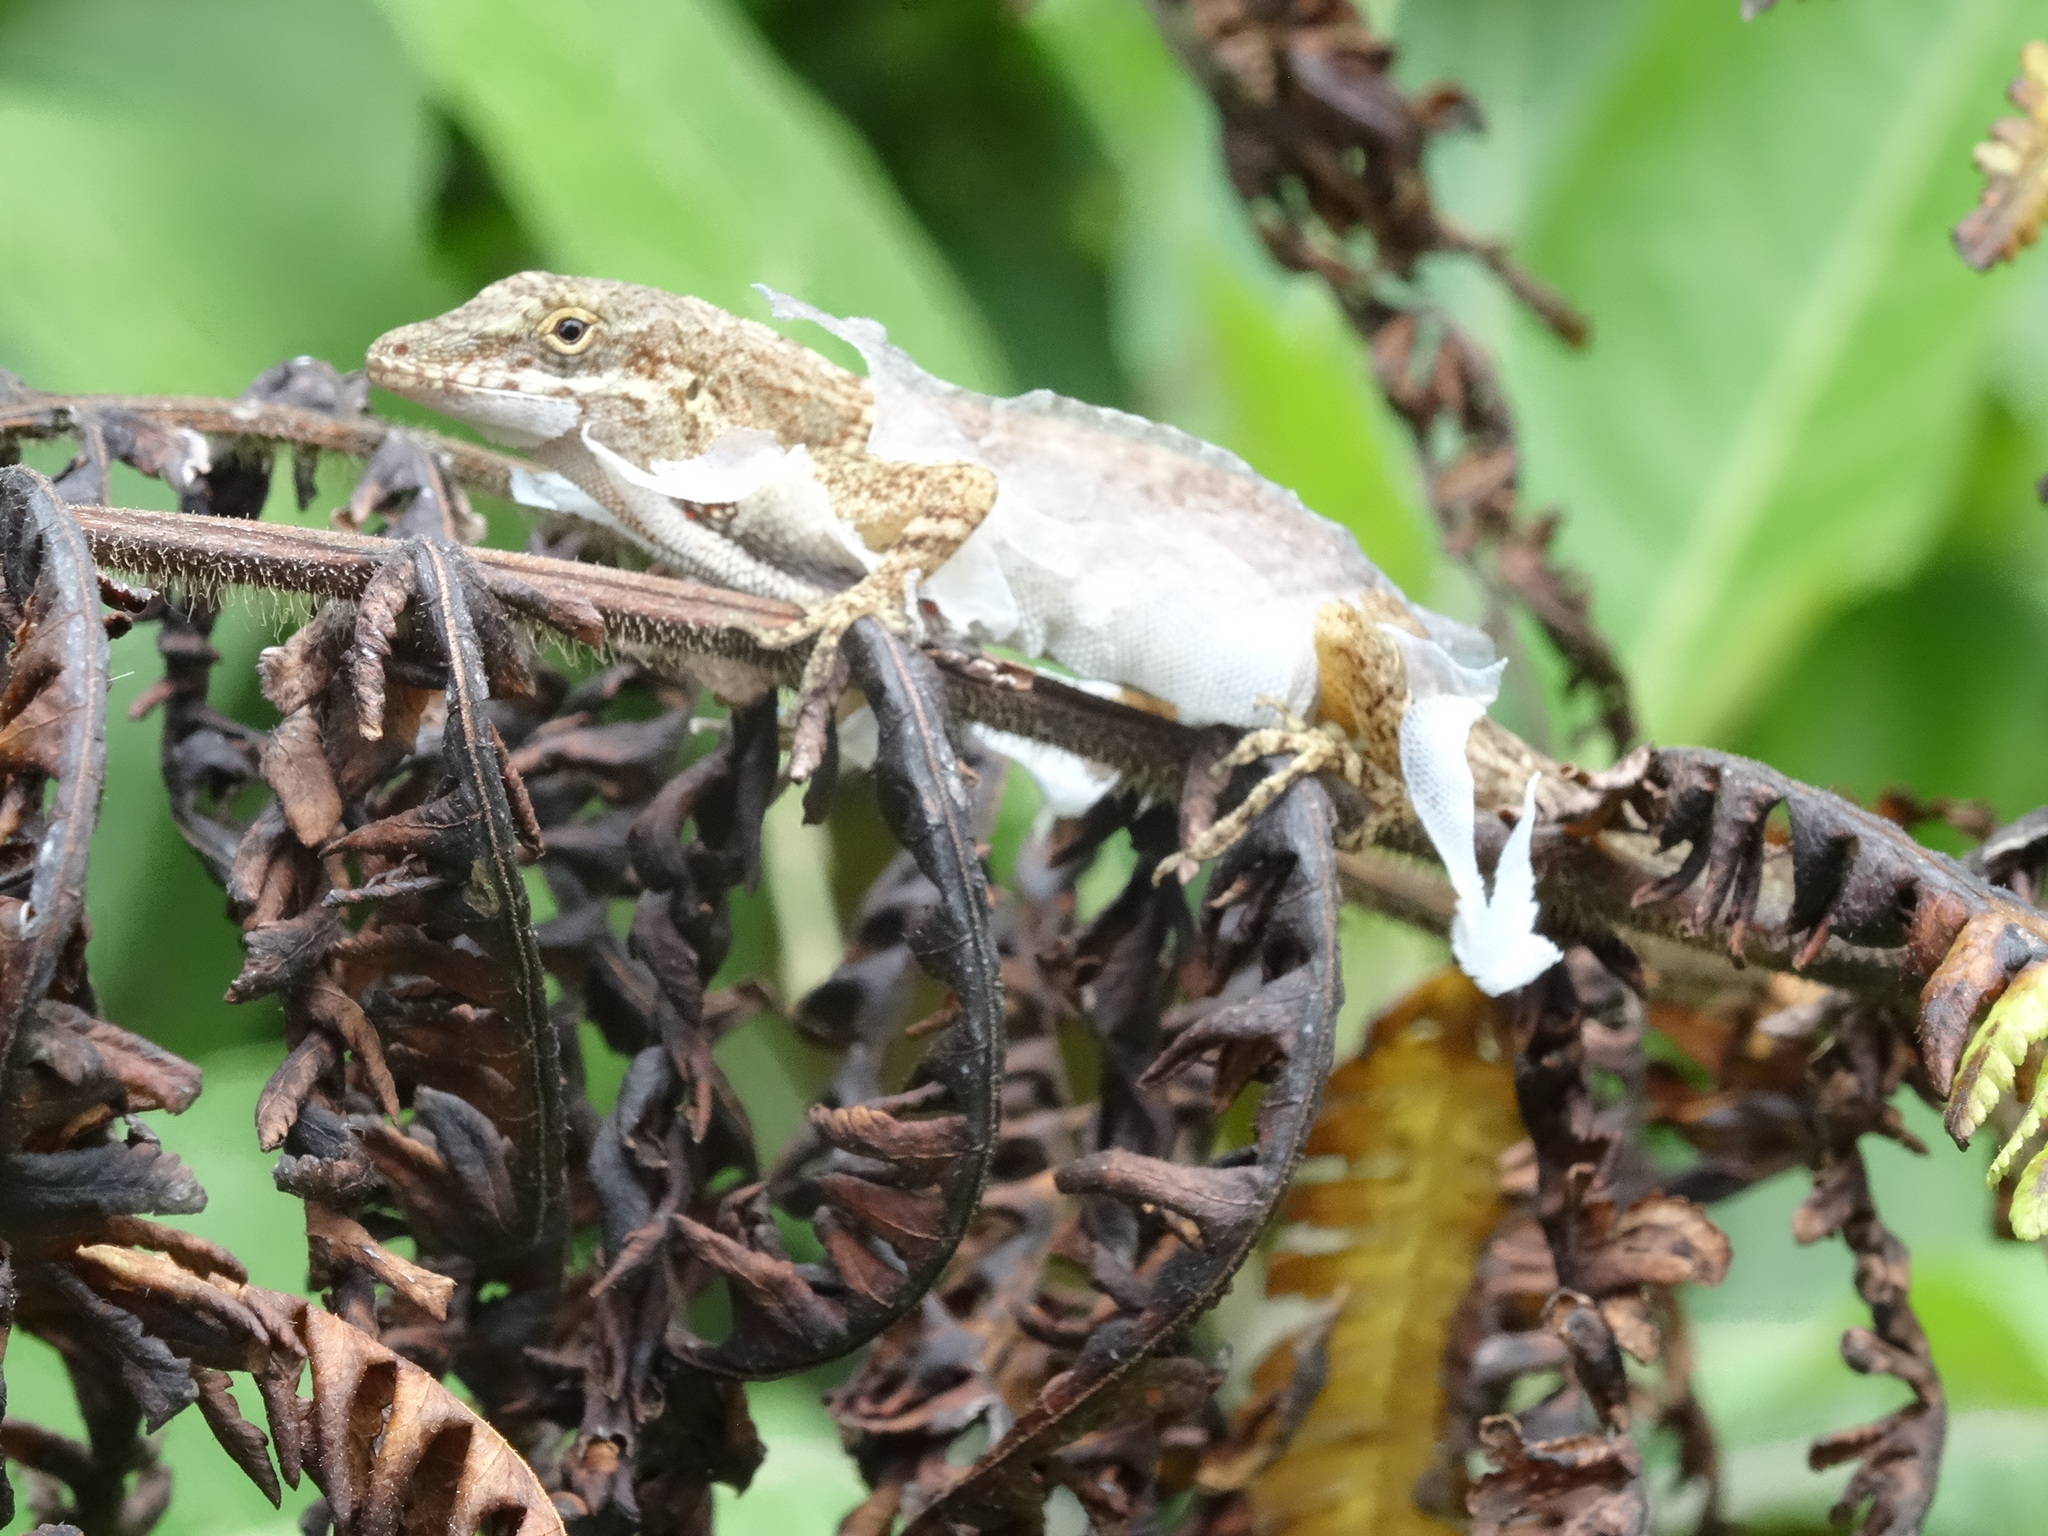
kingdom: Animalia
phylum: Chordata
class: Squamata
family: Dactyloidae
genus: Anolis
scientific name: Anolis mariarum
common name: Blemished anole
